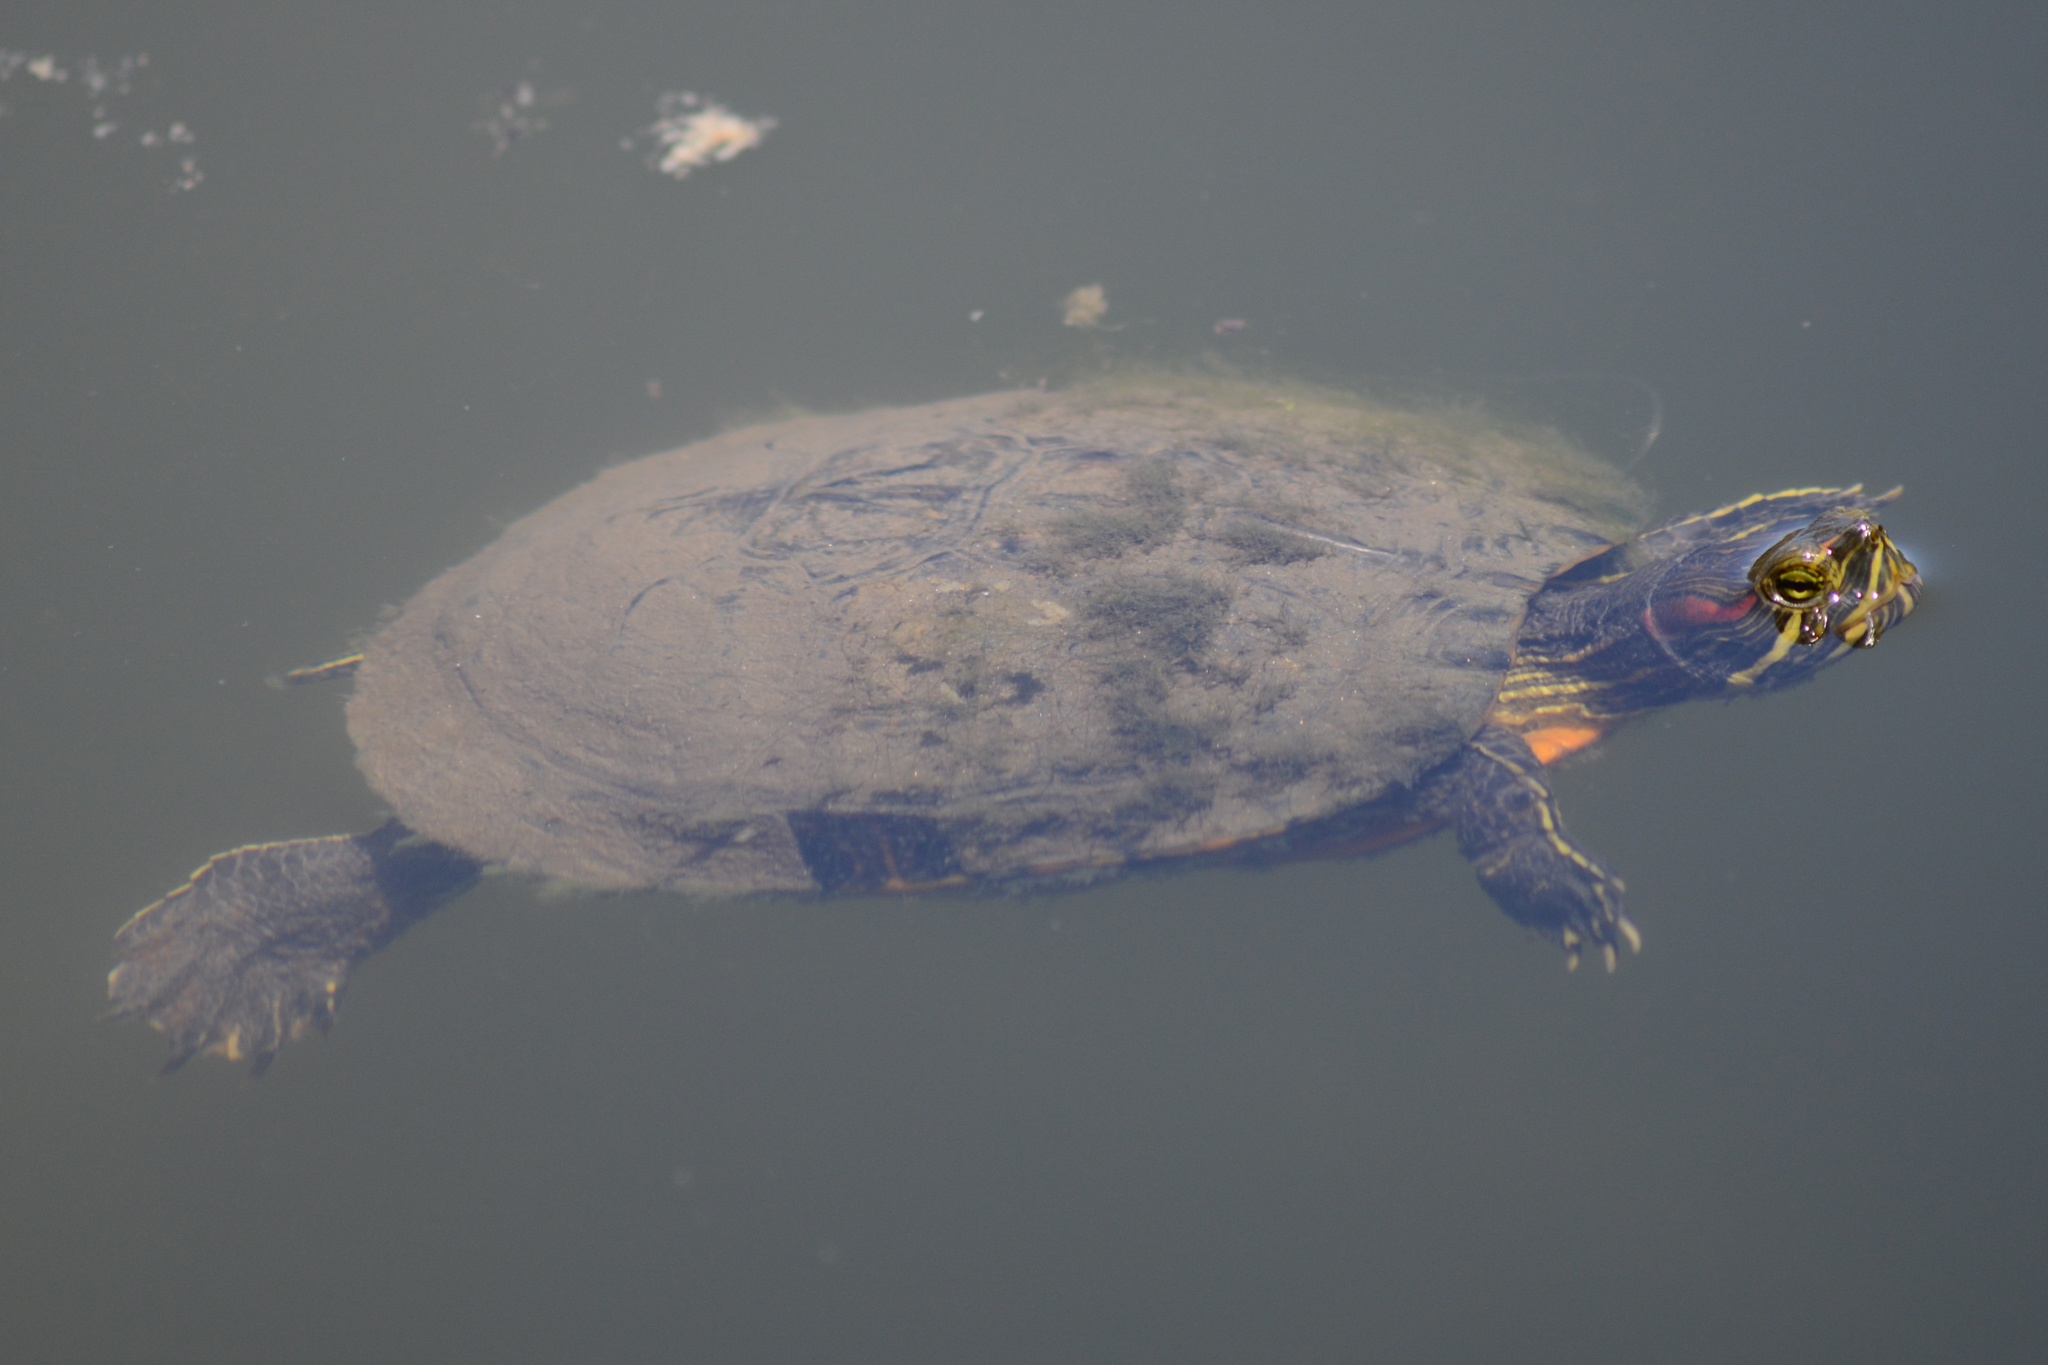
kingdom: Animalia
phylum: Chordata
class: Testudines
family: Emydidae
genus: Trachemys
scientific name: Trachemys scripta
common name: Slider
